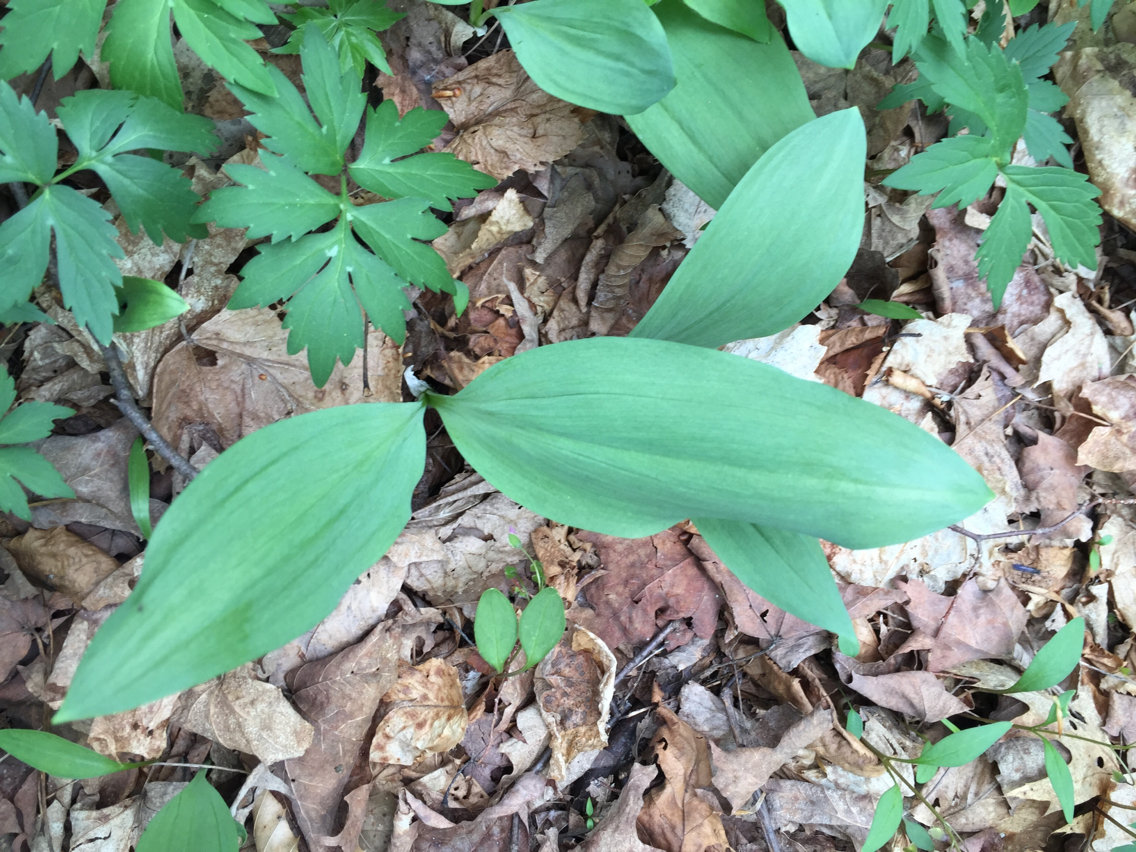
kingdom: Plantae
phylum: Tracheophyta
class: Liliopsida
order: Asparagales
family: Amaryllidaceae
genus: Allium
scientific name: Allium tricoccum
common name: Ramp
